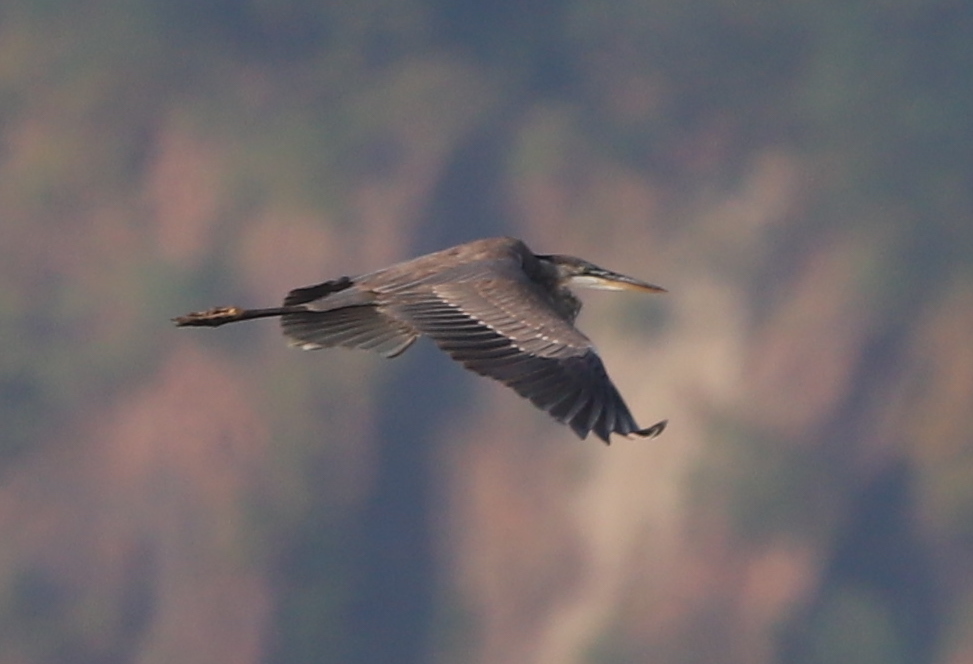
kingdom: Animalia
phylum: Chordata
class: Aves
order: Pelecaniformes
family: Ardeidae
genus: Ardea
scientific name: Ardea herodias
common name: Great blue heron
